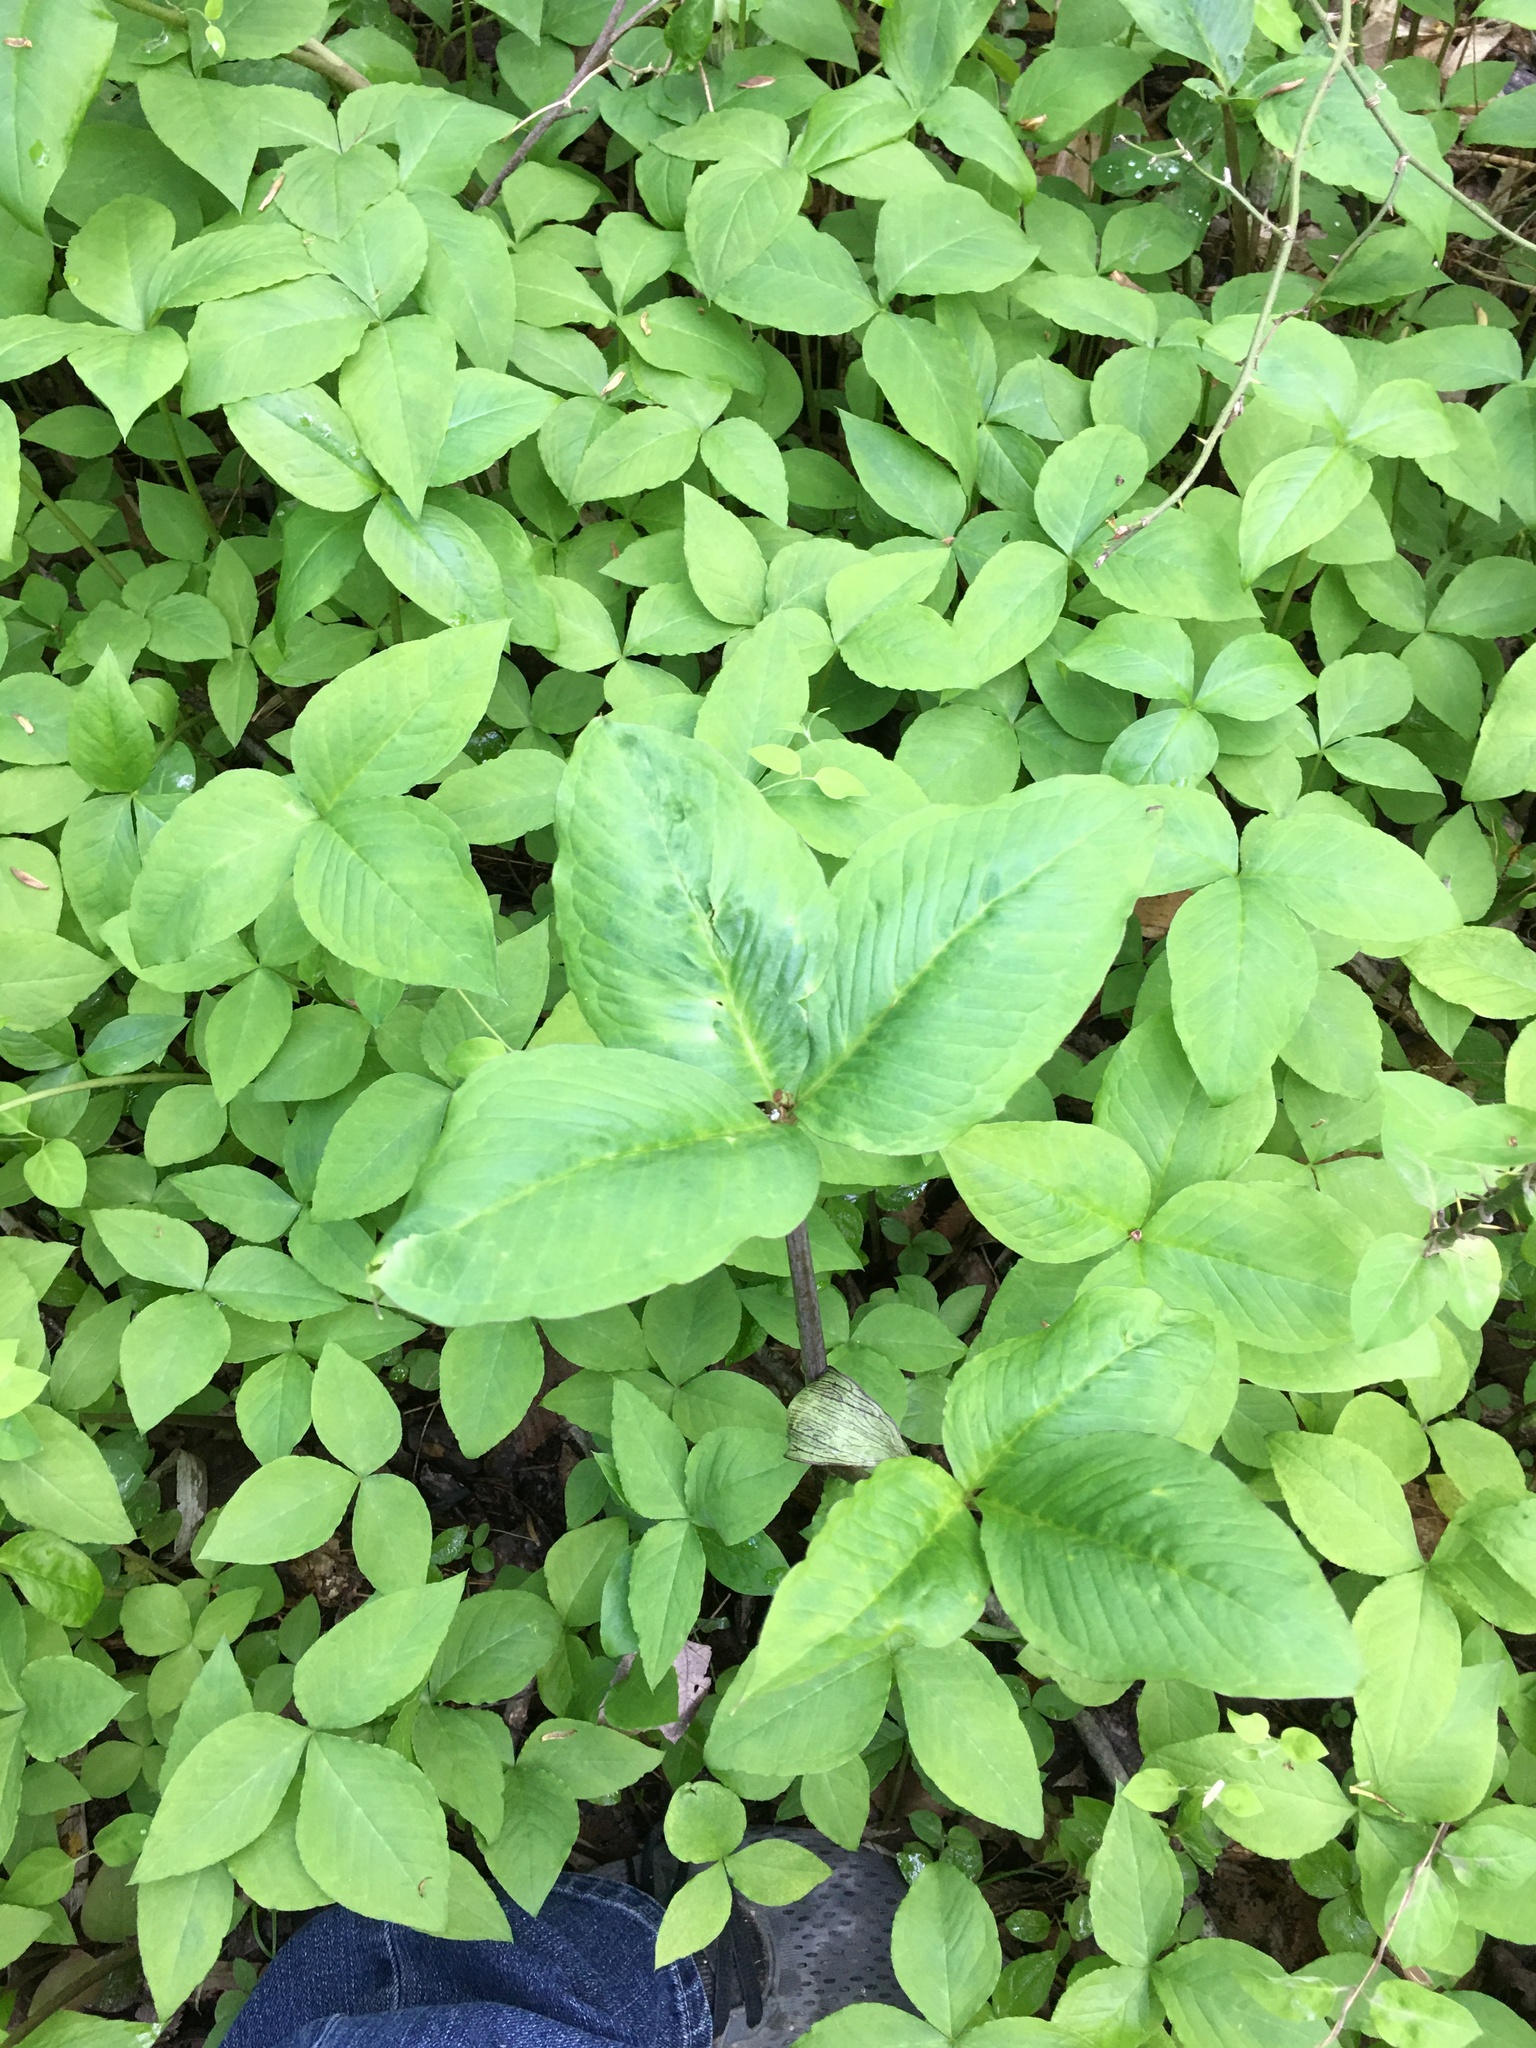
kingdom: Plantae
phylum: Tracheophyta
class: Liliopsida
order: Alismatales
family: Araceae
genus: Arisaema
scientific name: Arisaema triphyllum
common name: Jack-in-the-pulpit
